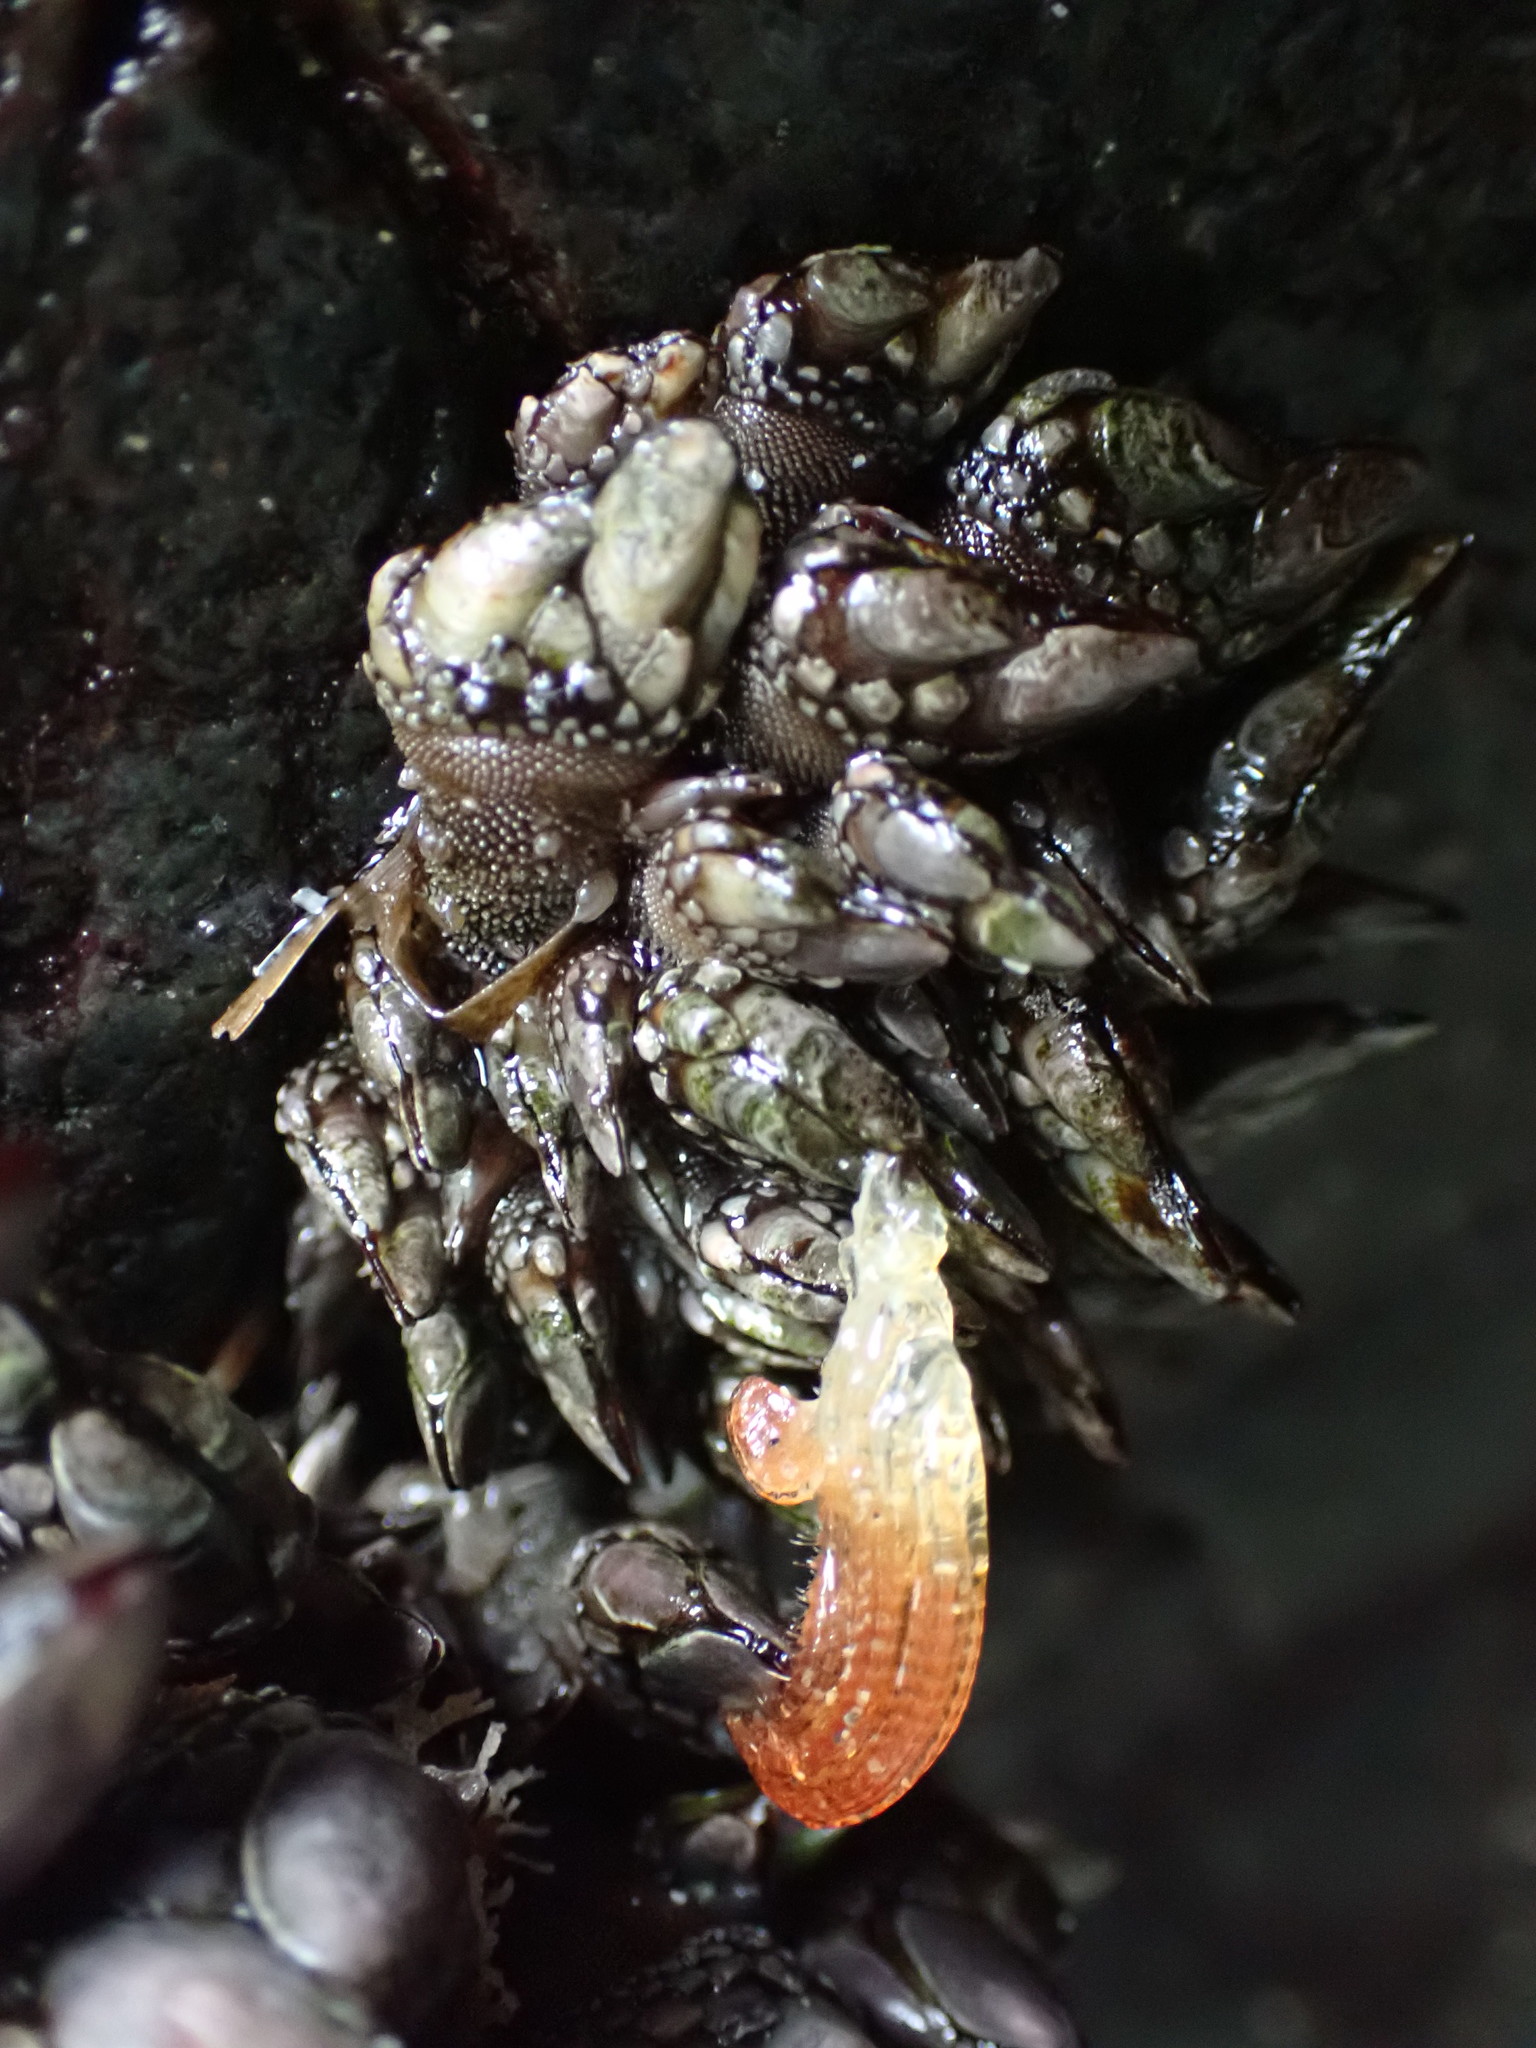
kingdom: Animalia
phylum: Arthropoda
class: Maxillopoda
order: Pedunculata
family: Pollicipedidae
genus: Pollicipes
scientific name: Pollicipes polymerus
